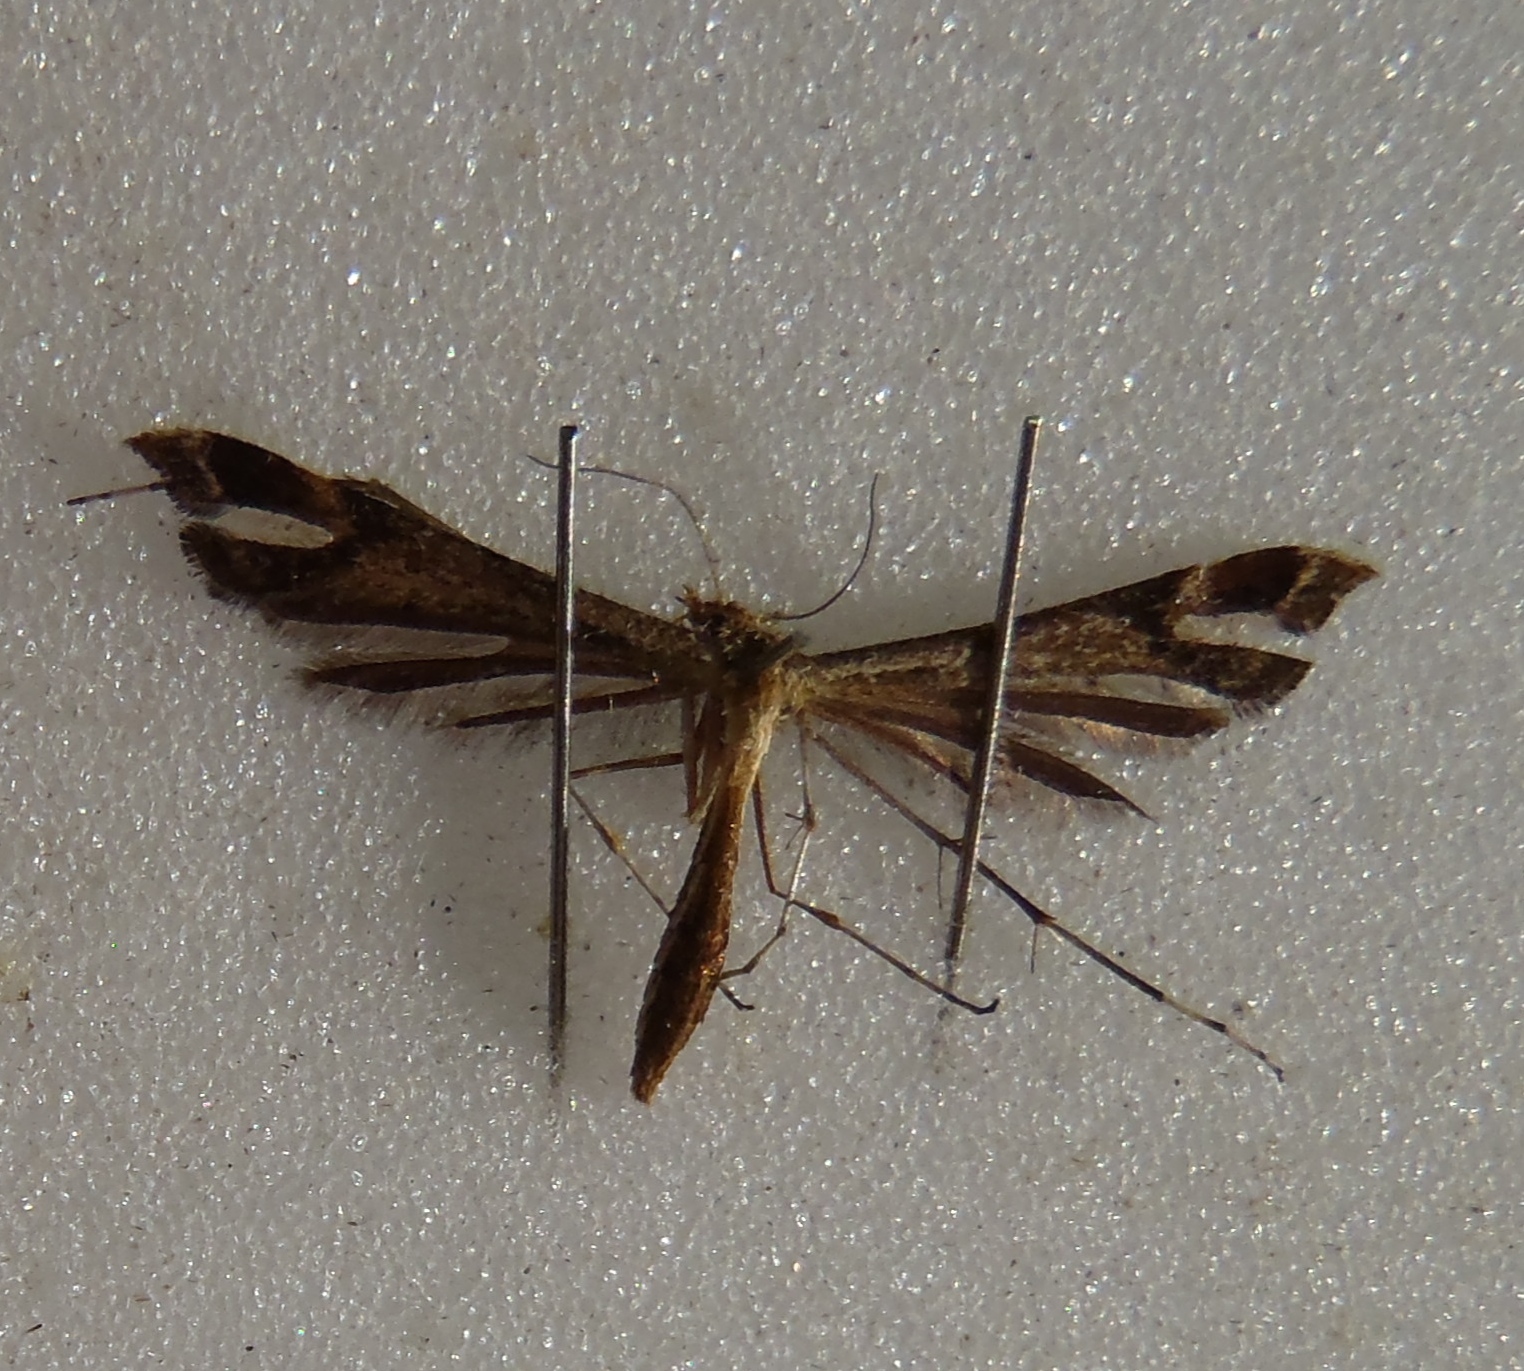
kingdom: Animalia
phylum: Arthropoda
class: Insecta
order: Lepidoptera
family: Pterophoridae
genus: Sinpunctiptilia
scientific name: Sinpunctiptilia emissalis
